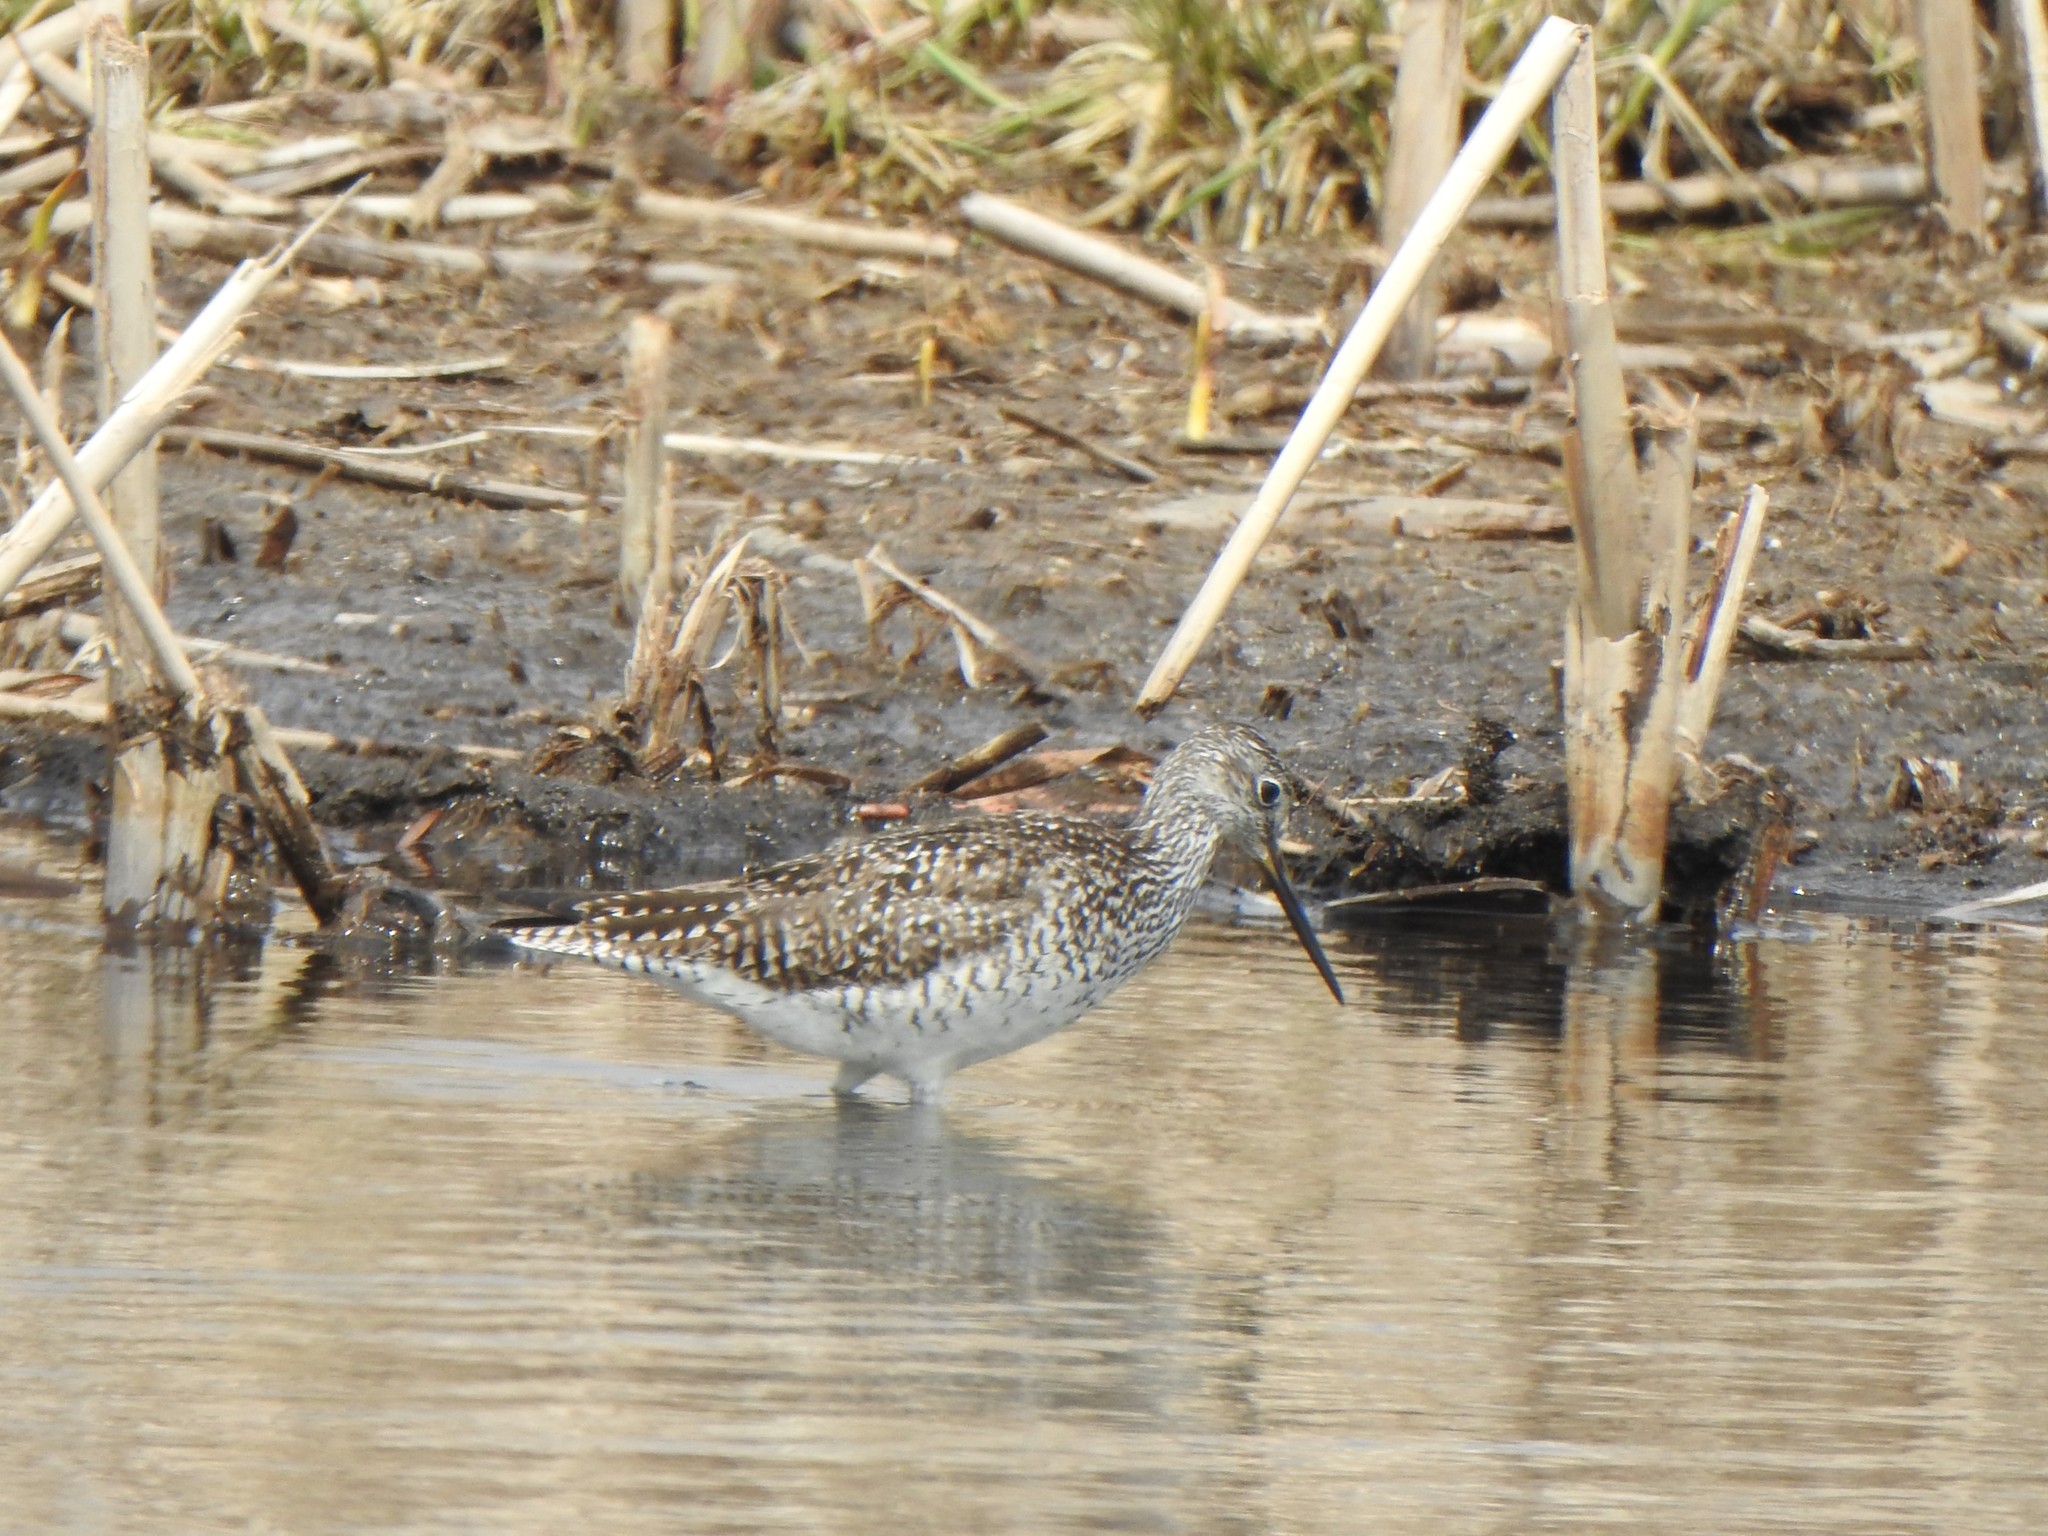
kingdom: Animalia
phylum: Chordata
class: Aves
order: Charadriiformes
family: Scolopacidae
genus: Tringa
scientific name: Tringa flavipes
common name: Lesser yellowlegs
